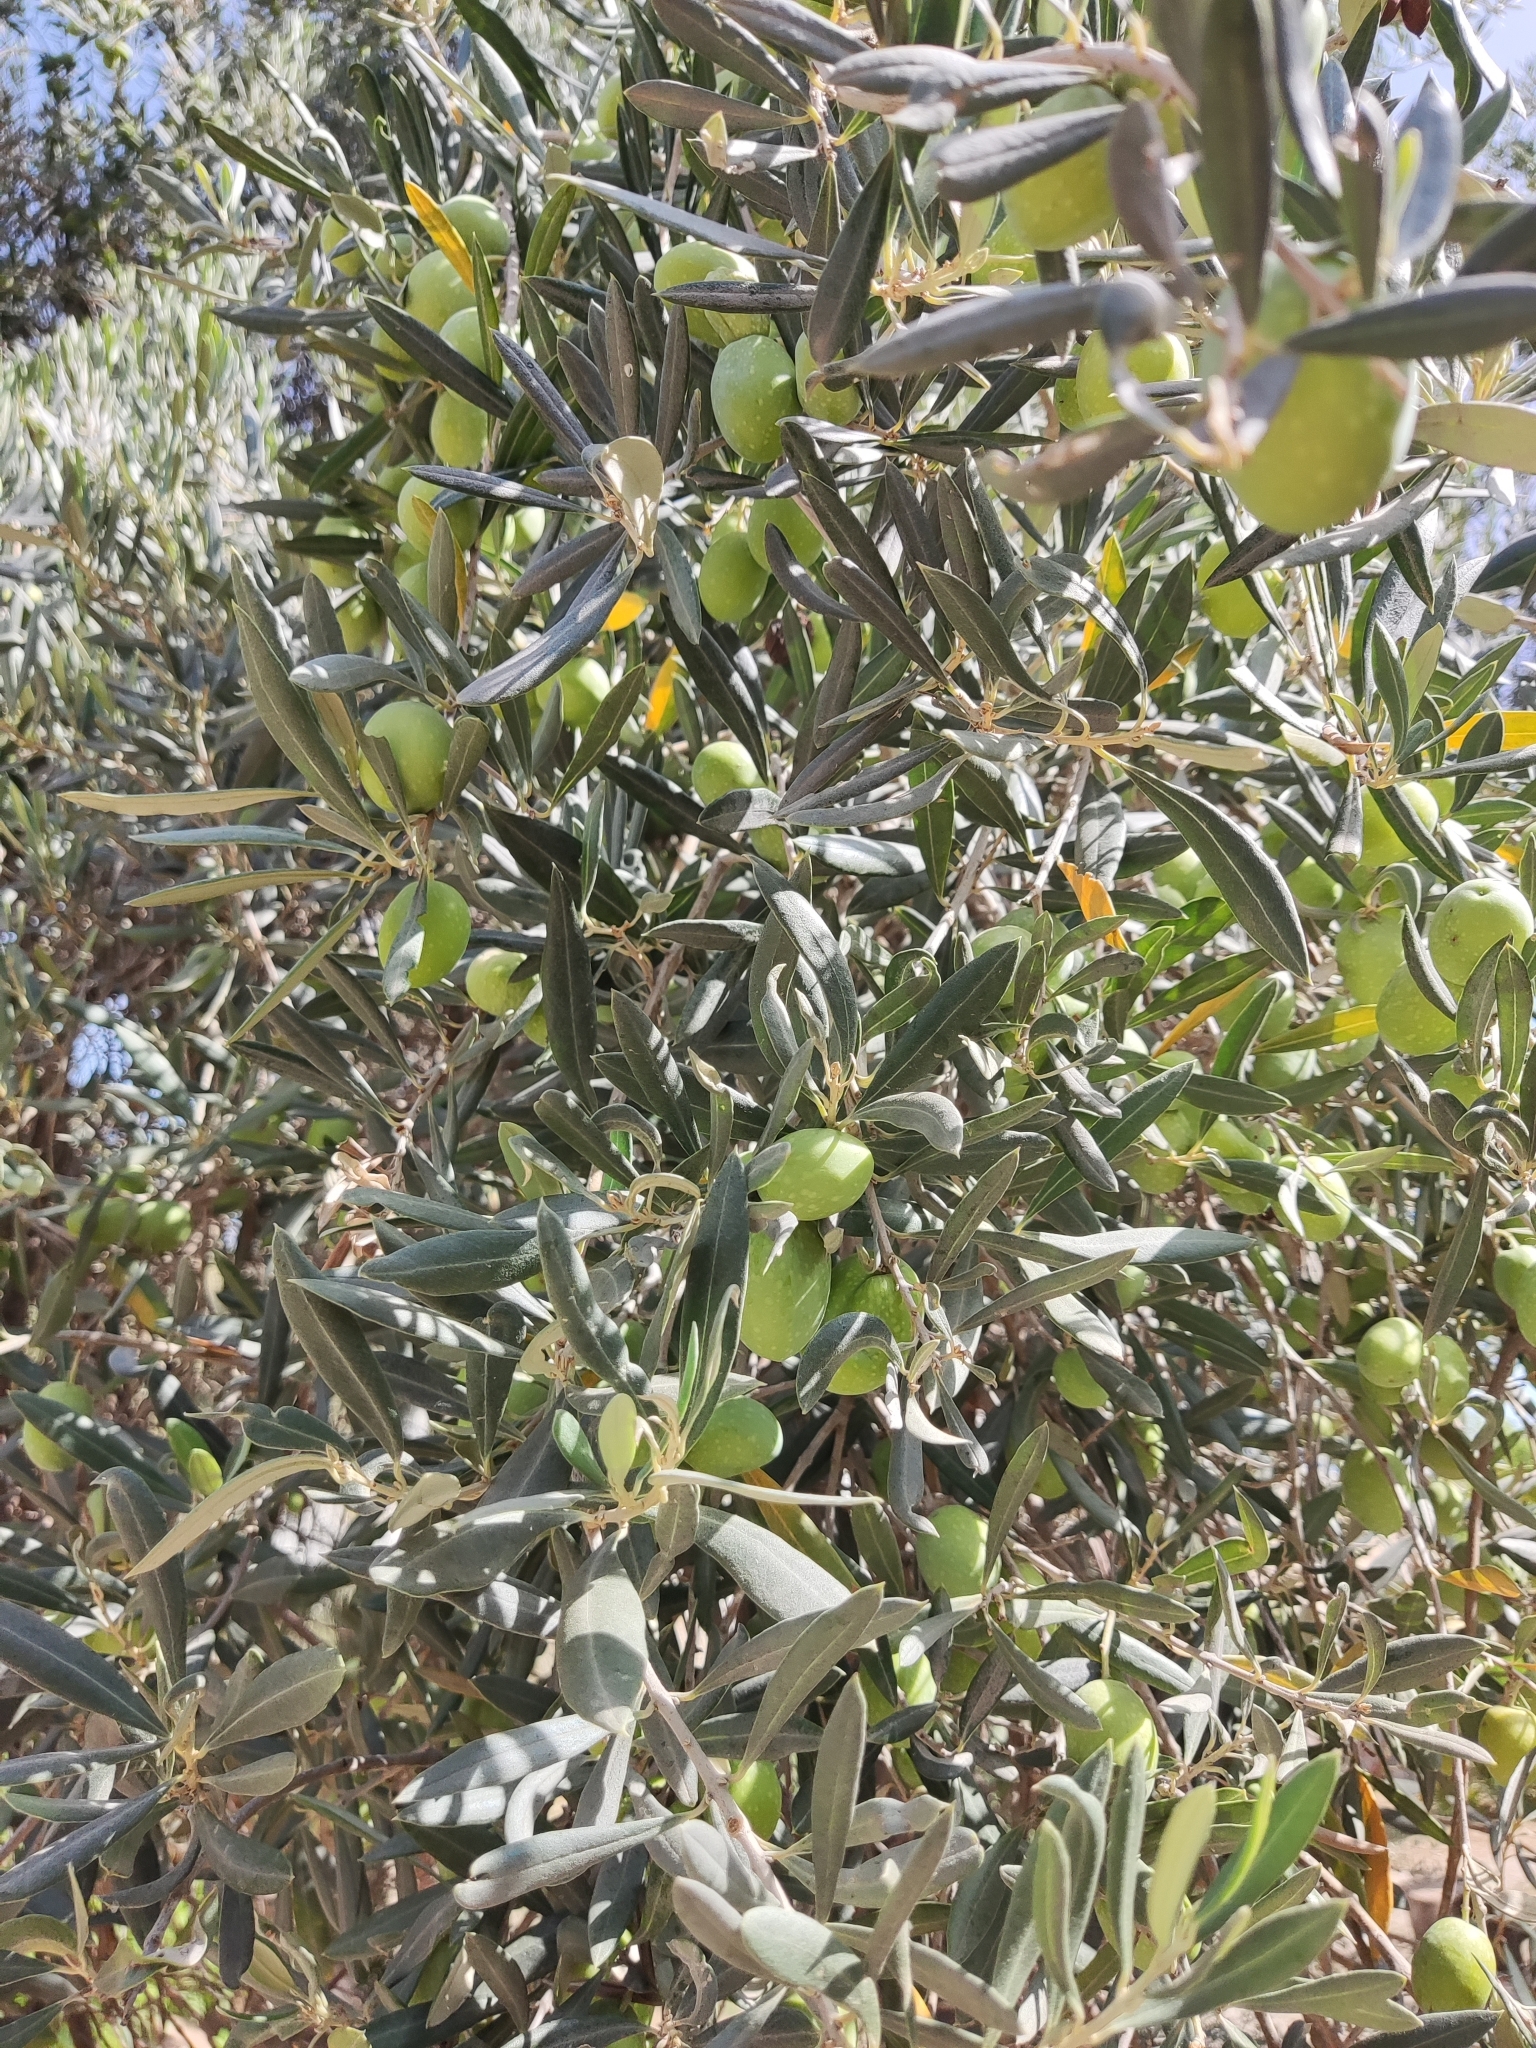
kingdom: Plantae
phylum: Tracheophyta
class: Magnoliopsida
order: Lamiales
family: Oleaceae
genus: Olea
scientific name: Olea europaea
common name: Olive
